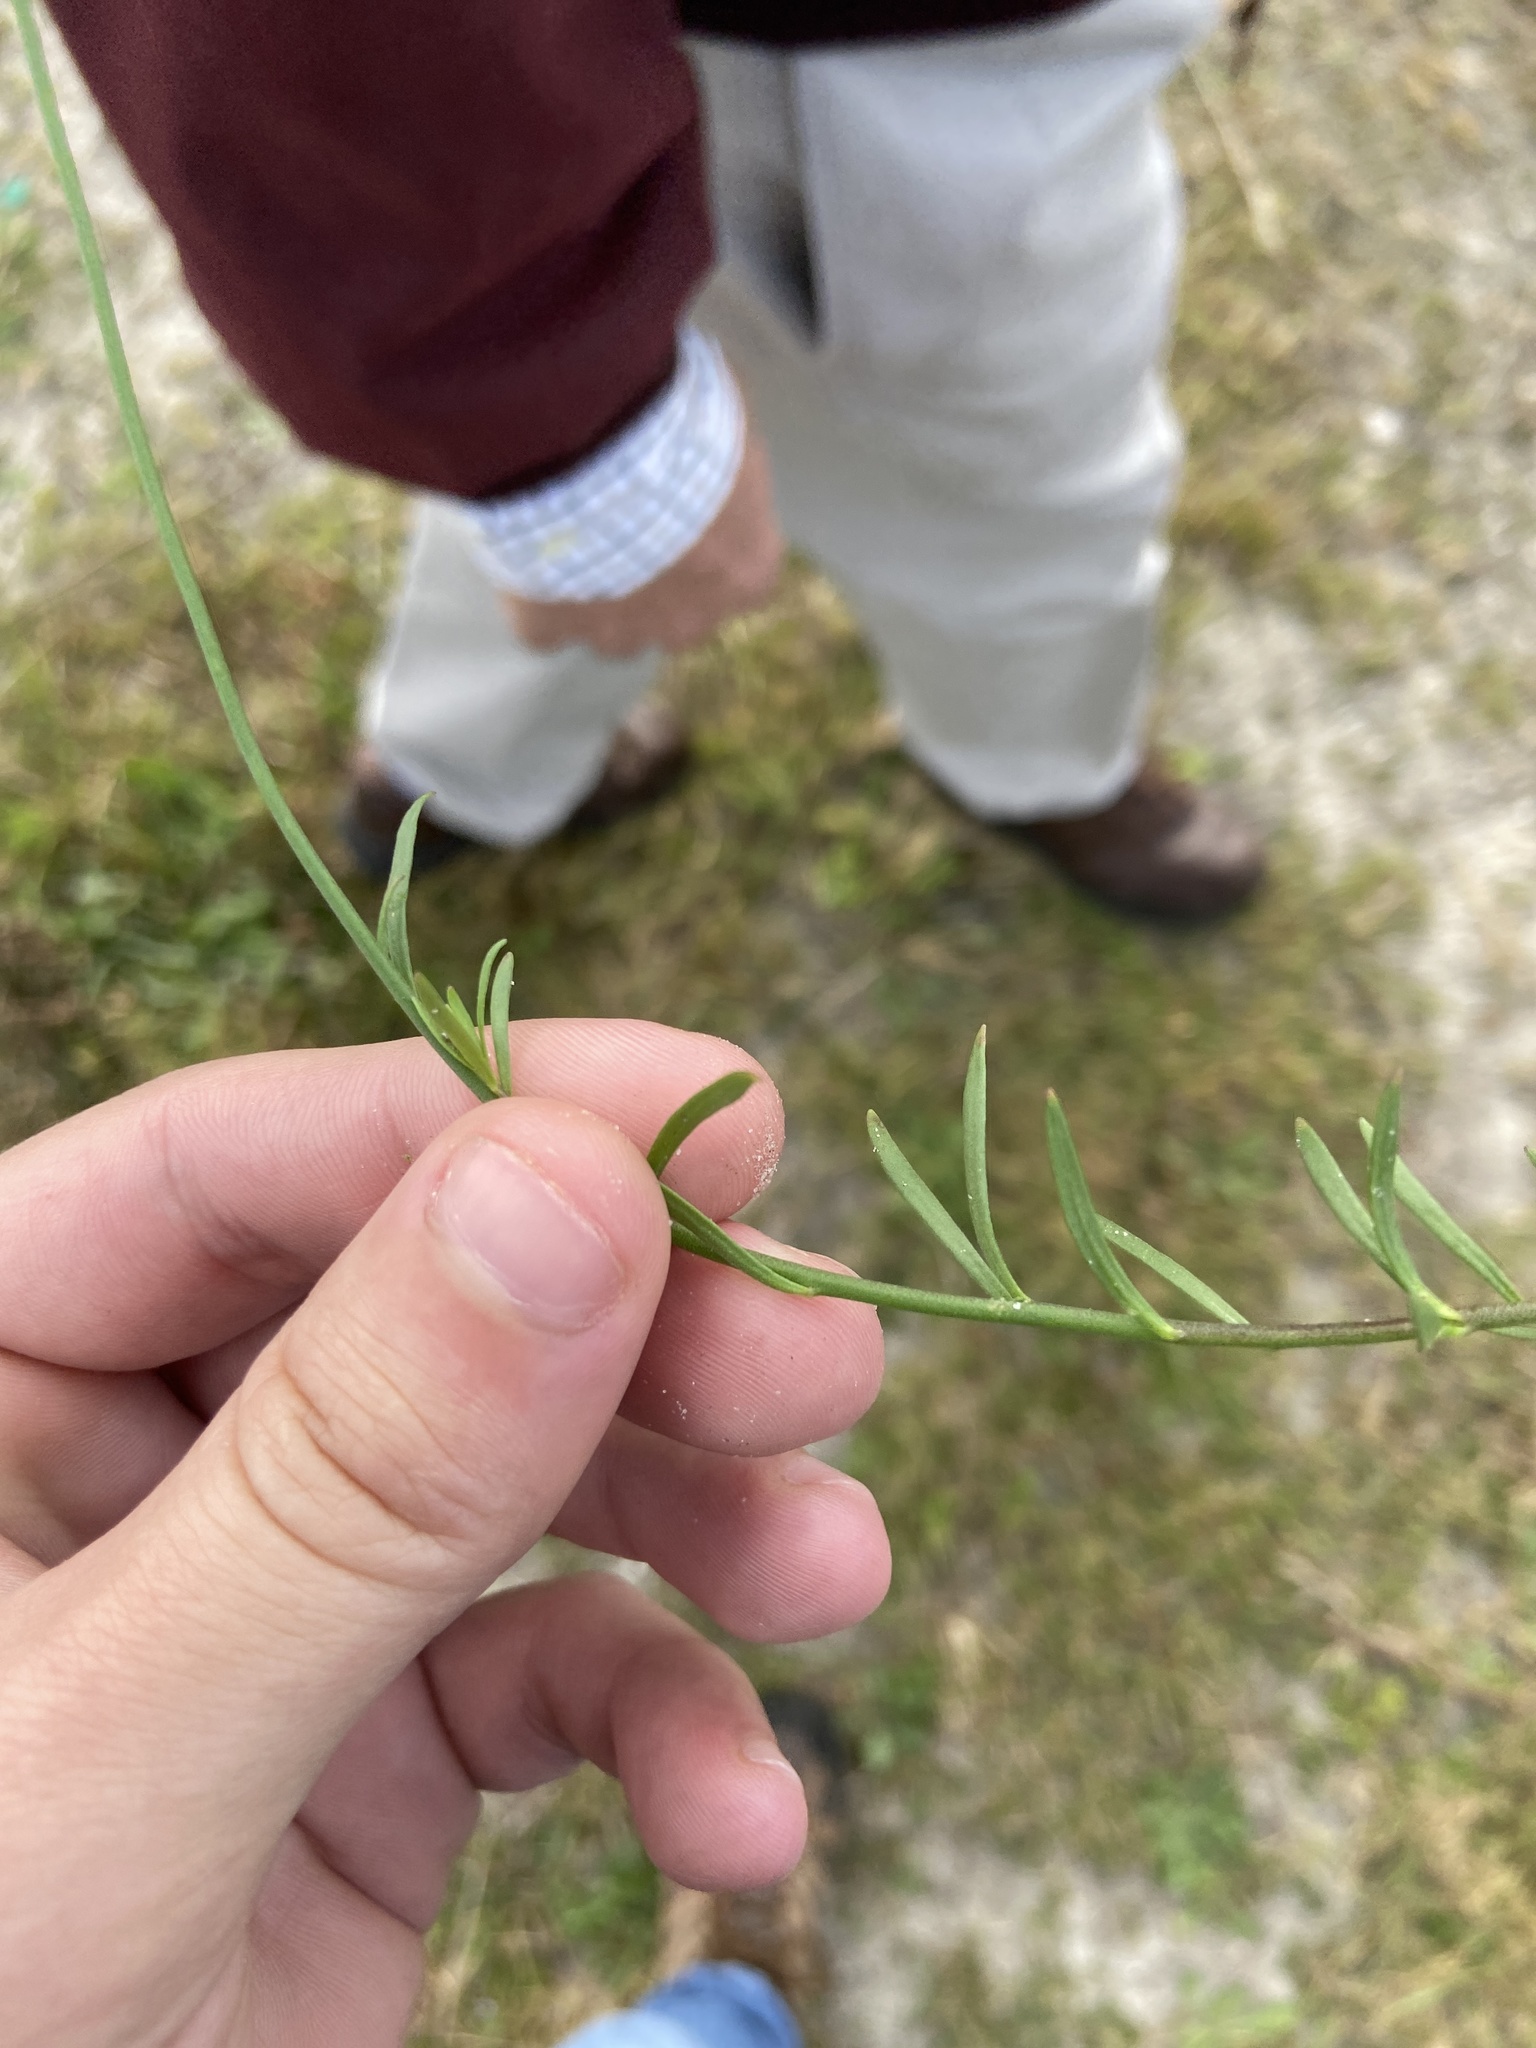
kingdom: Plantae
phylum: Tracheophyta
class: Magnoliopsida
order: Lamiales
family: Plantaginaceae
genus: Nuttallanthus
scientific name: Nuttallanthus canadensis
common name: Blue toadflax
